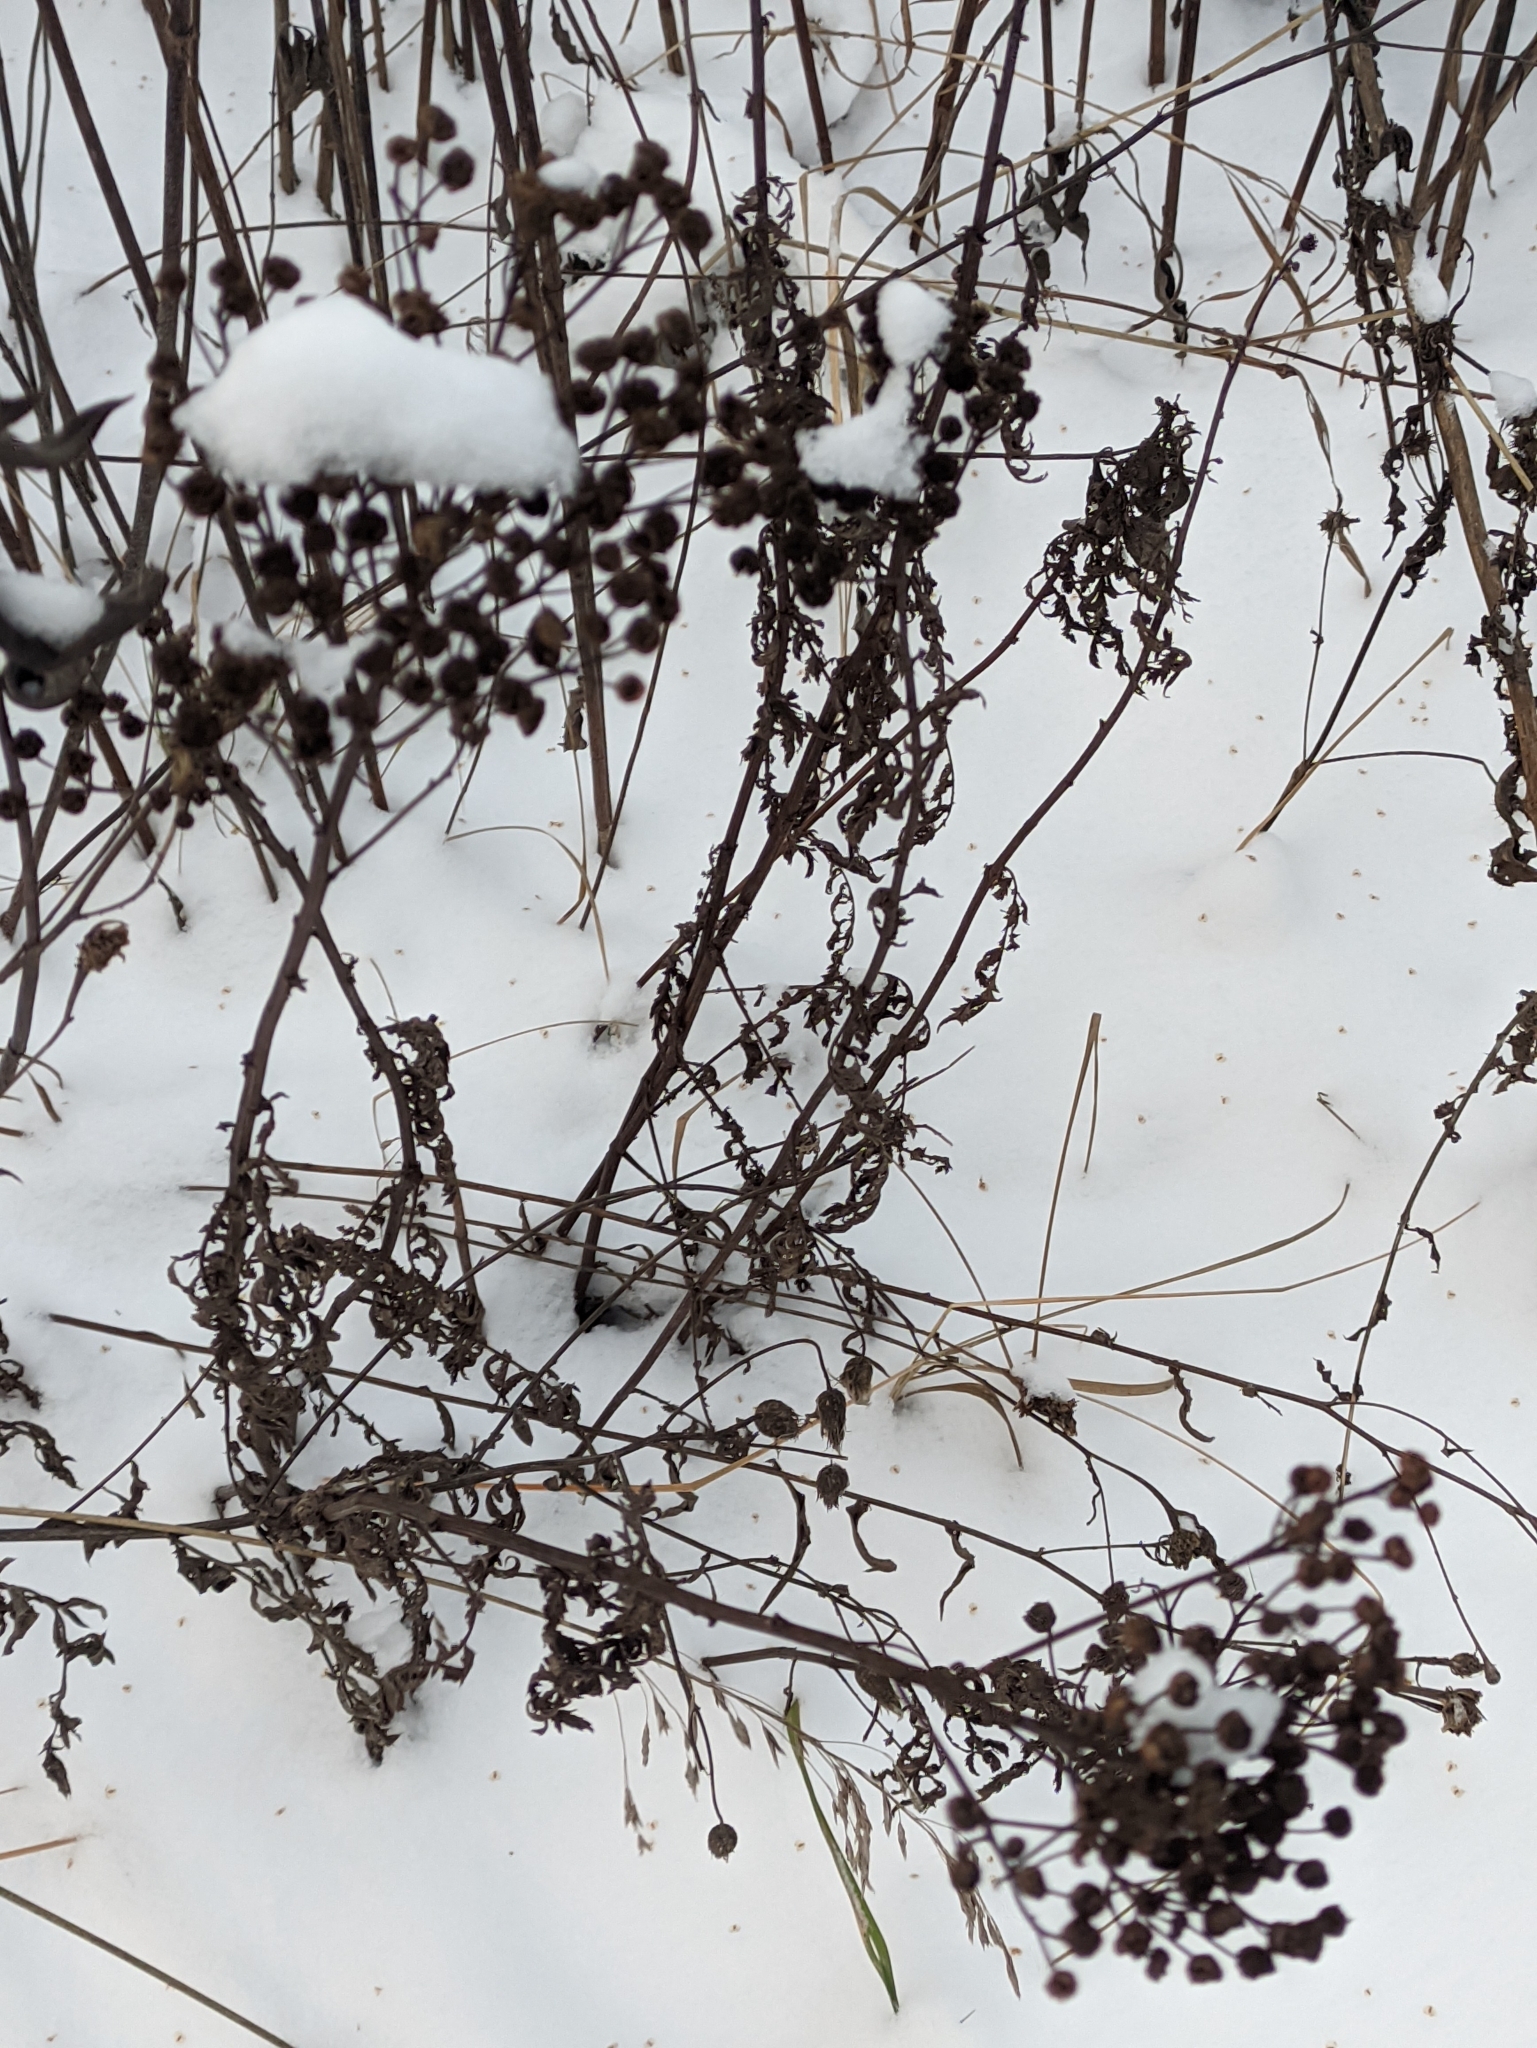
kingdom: Plantae
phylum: Tracheophyta
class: Magnoliopsida
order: Asterales
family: Asteraceae
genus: Tanacetum
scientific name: Tanacetum vulgare
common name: Common tansy
